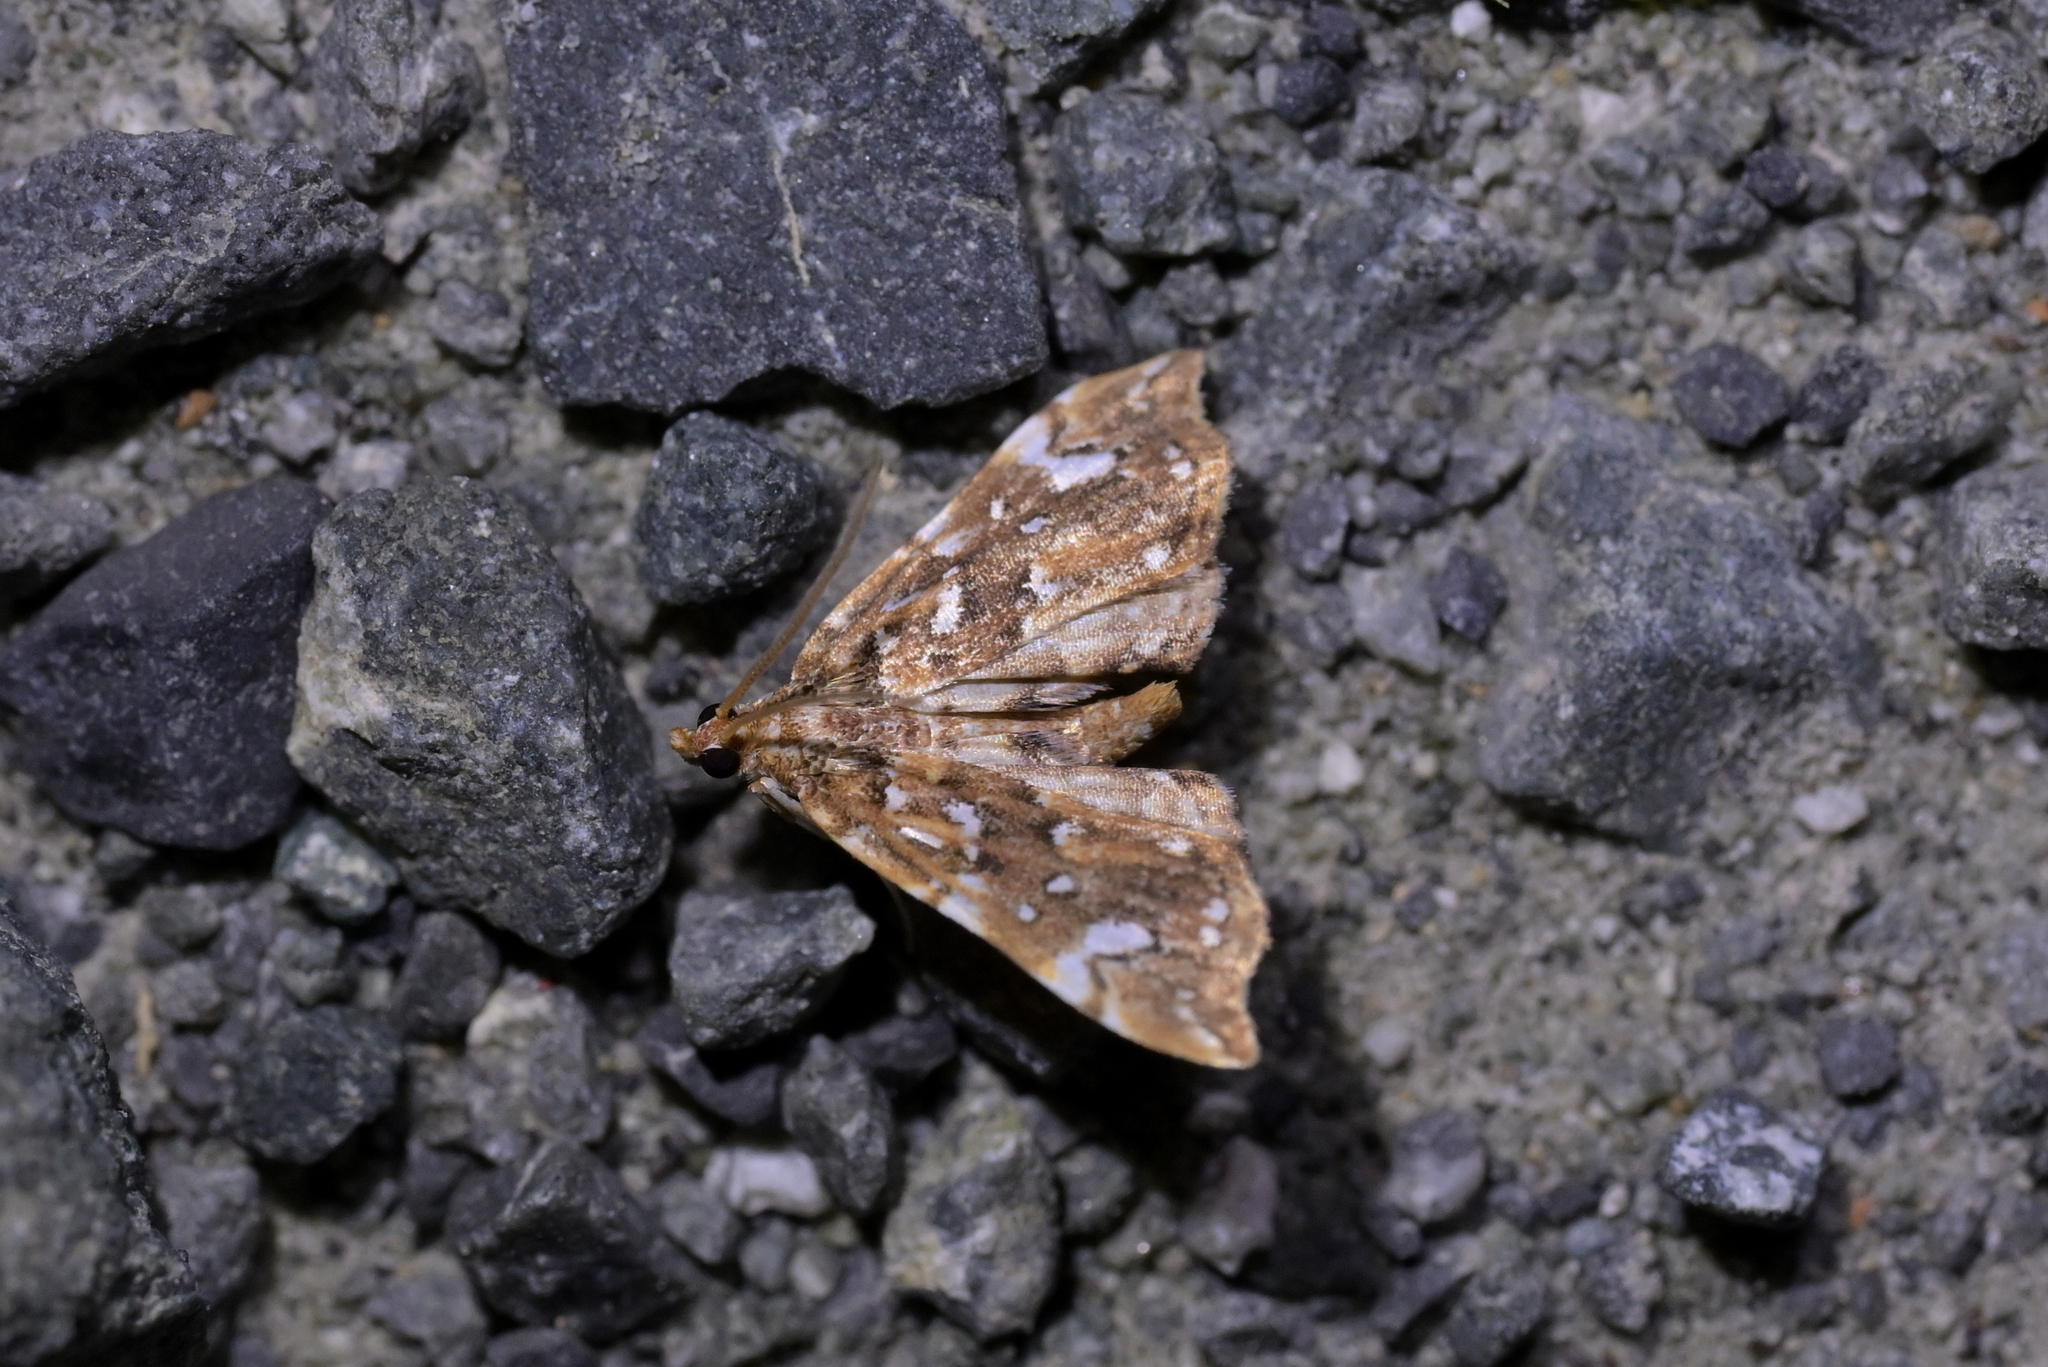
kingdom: Animalia
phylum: Arthropoda
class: Insecta
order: Lepidoptera
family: Pyralidae
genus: Musotima
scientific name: Musotima nitidalis
